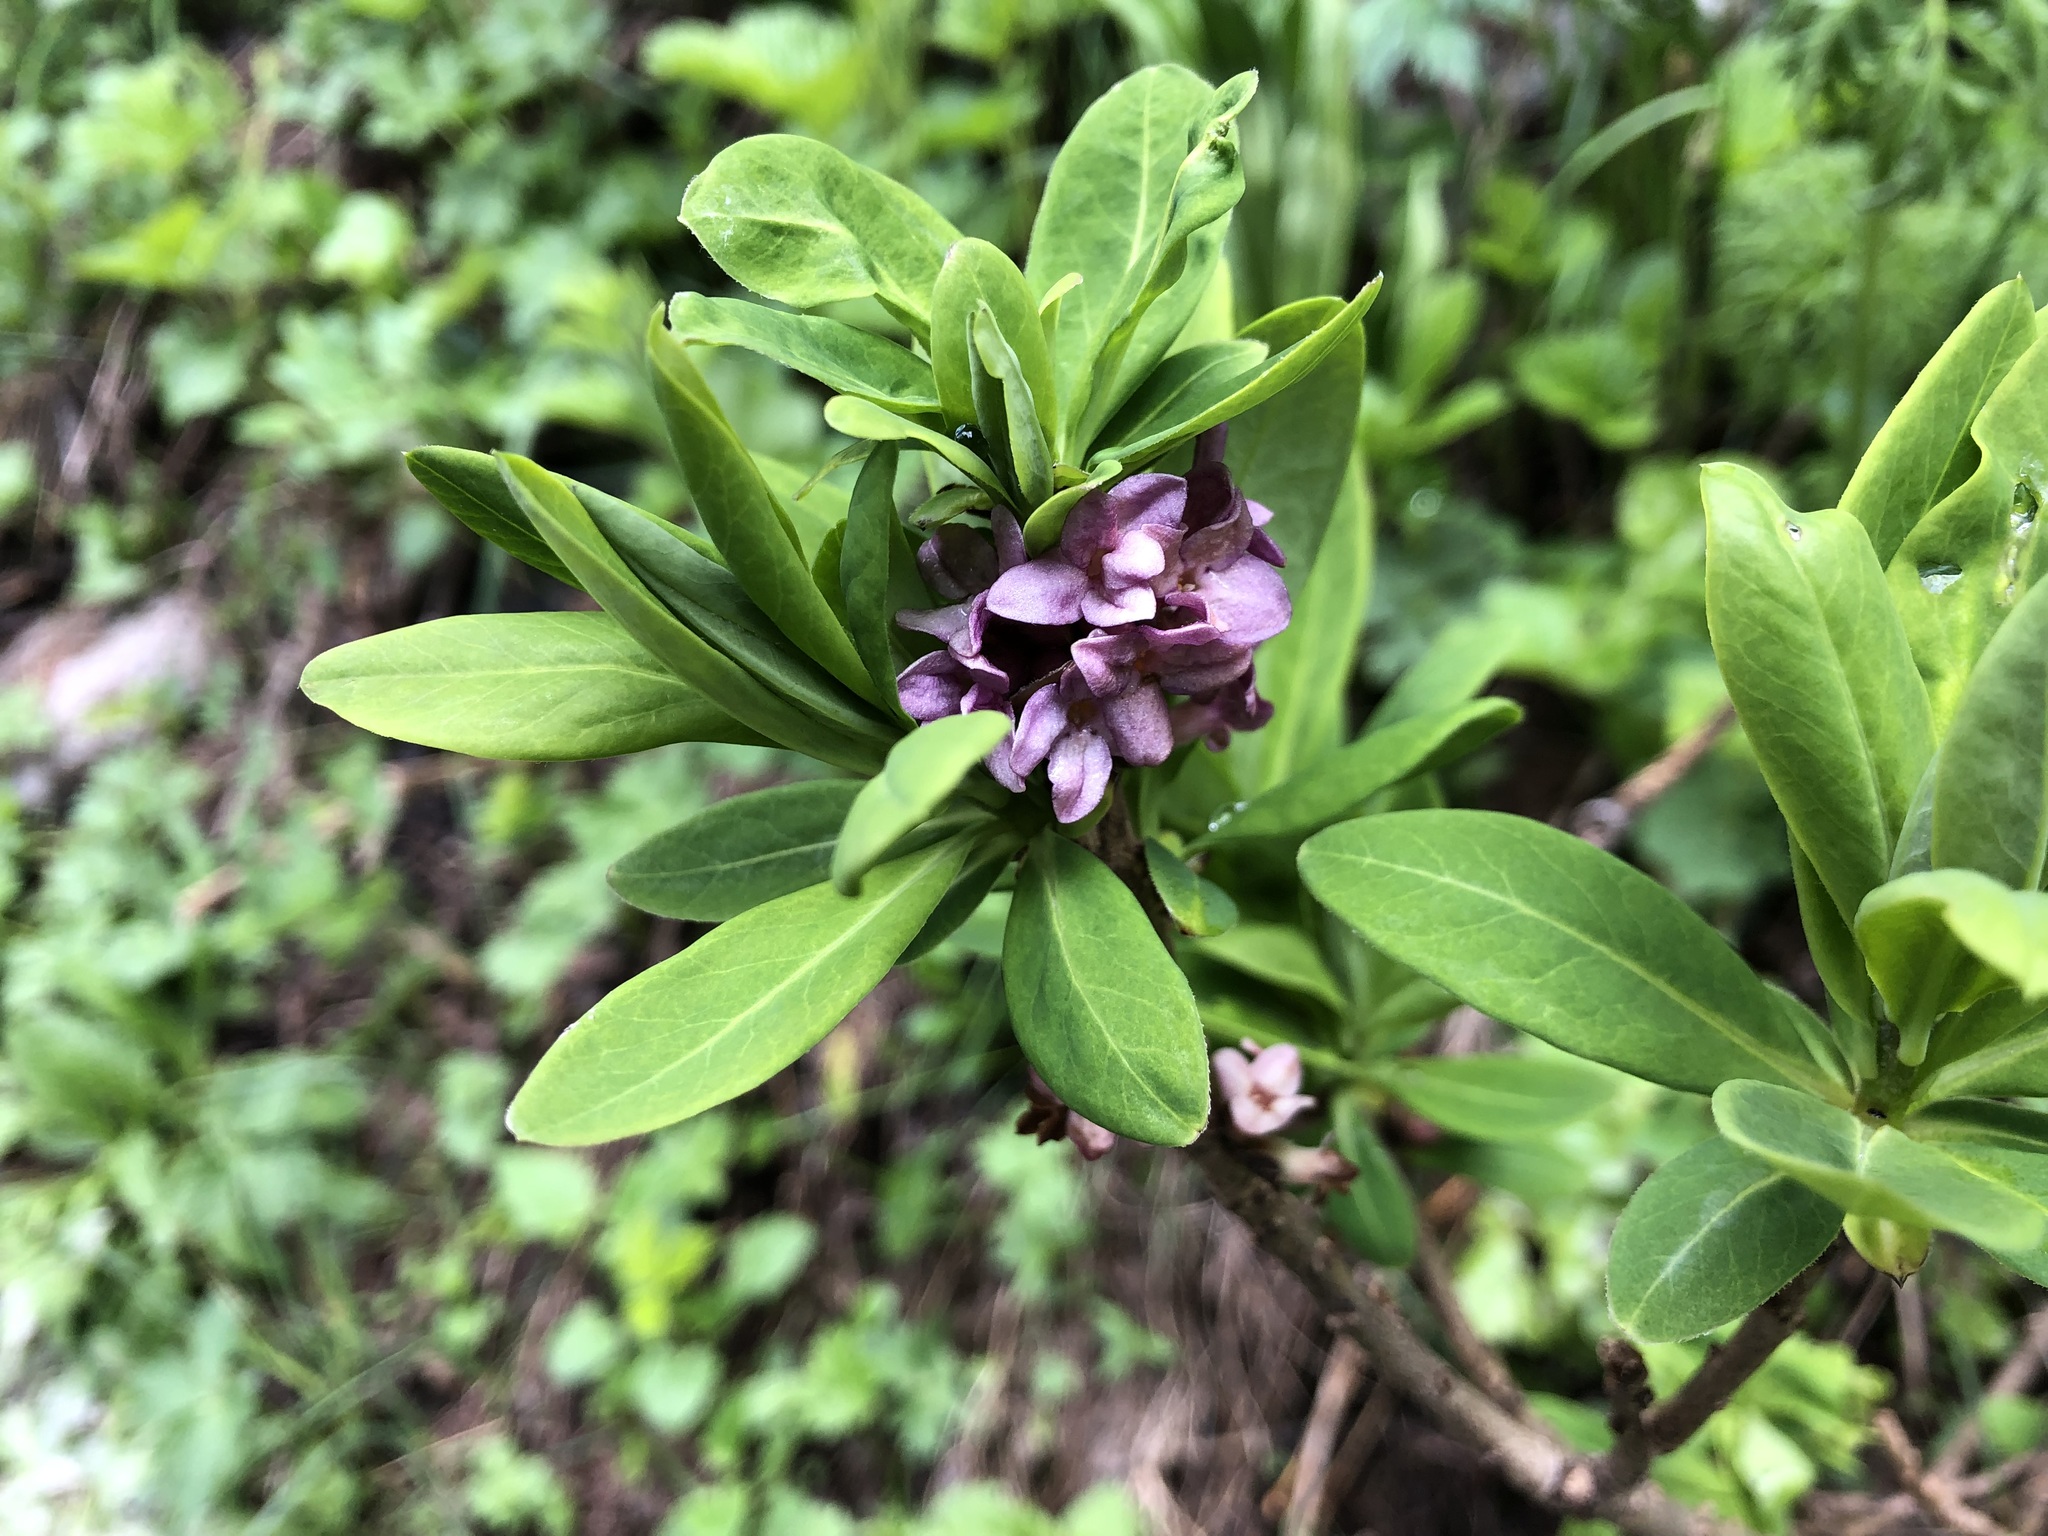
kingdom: Plantae
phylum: Tracheophyta
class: Magnoliopsida
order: Malvales
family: Thymelaeaceae
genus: Daphne
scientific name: Daphne mezereum
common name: Mezereon
